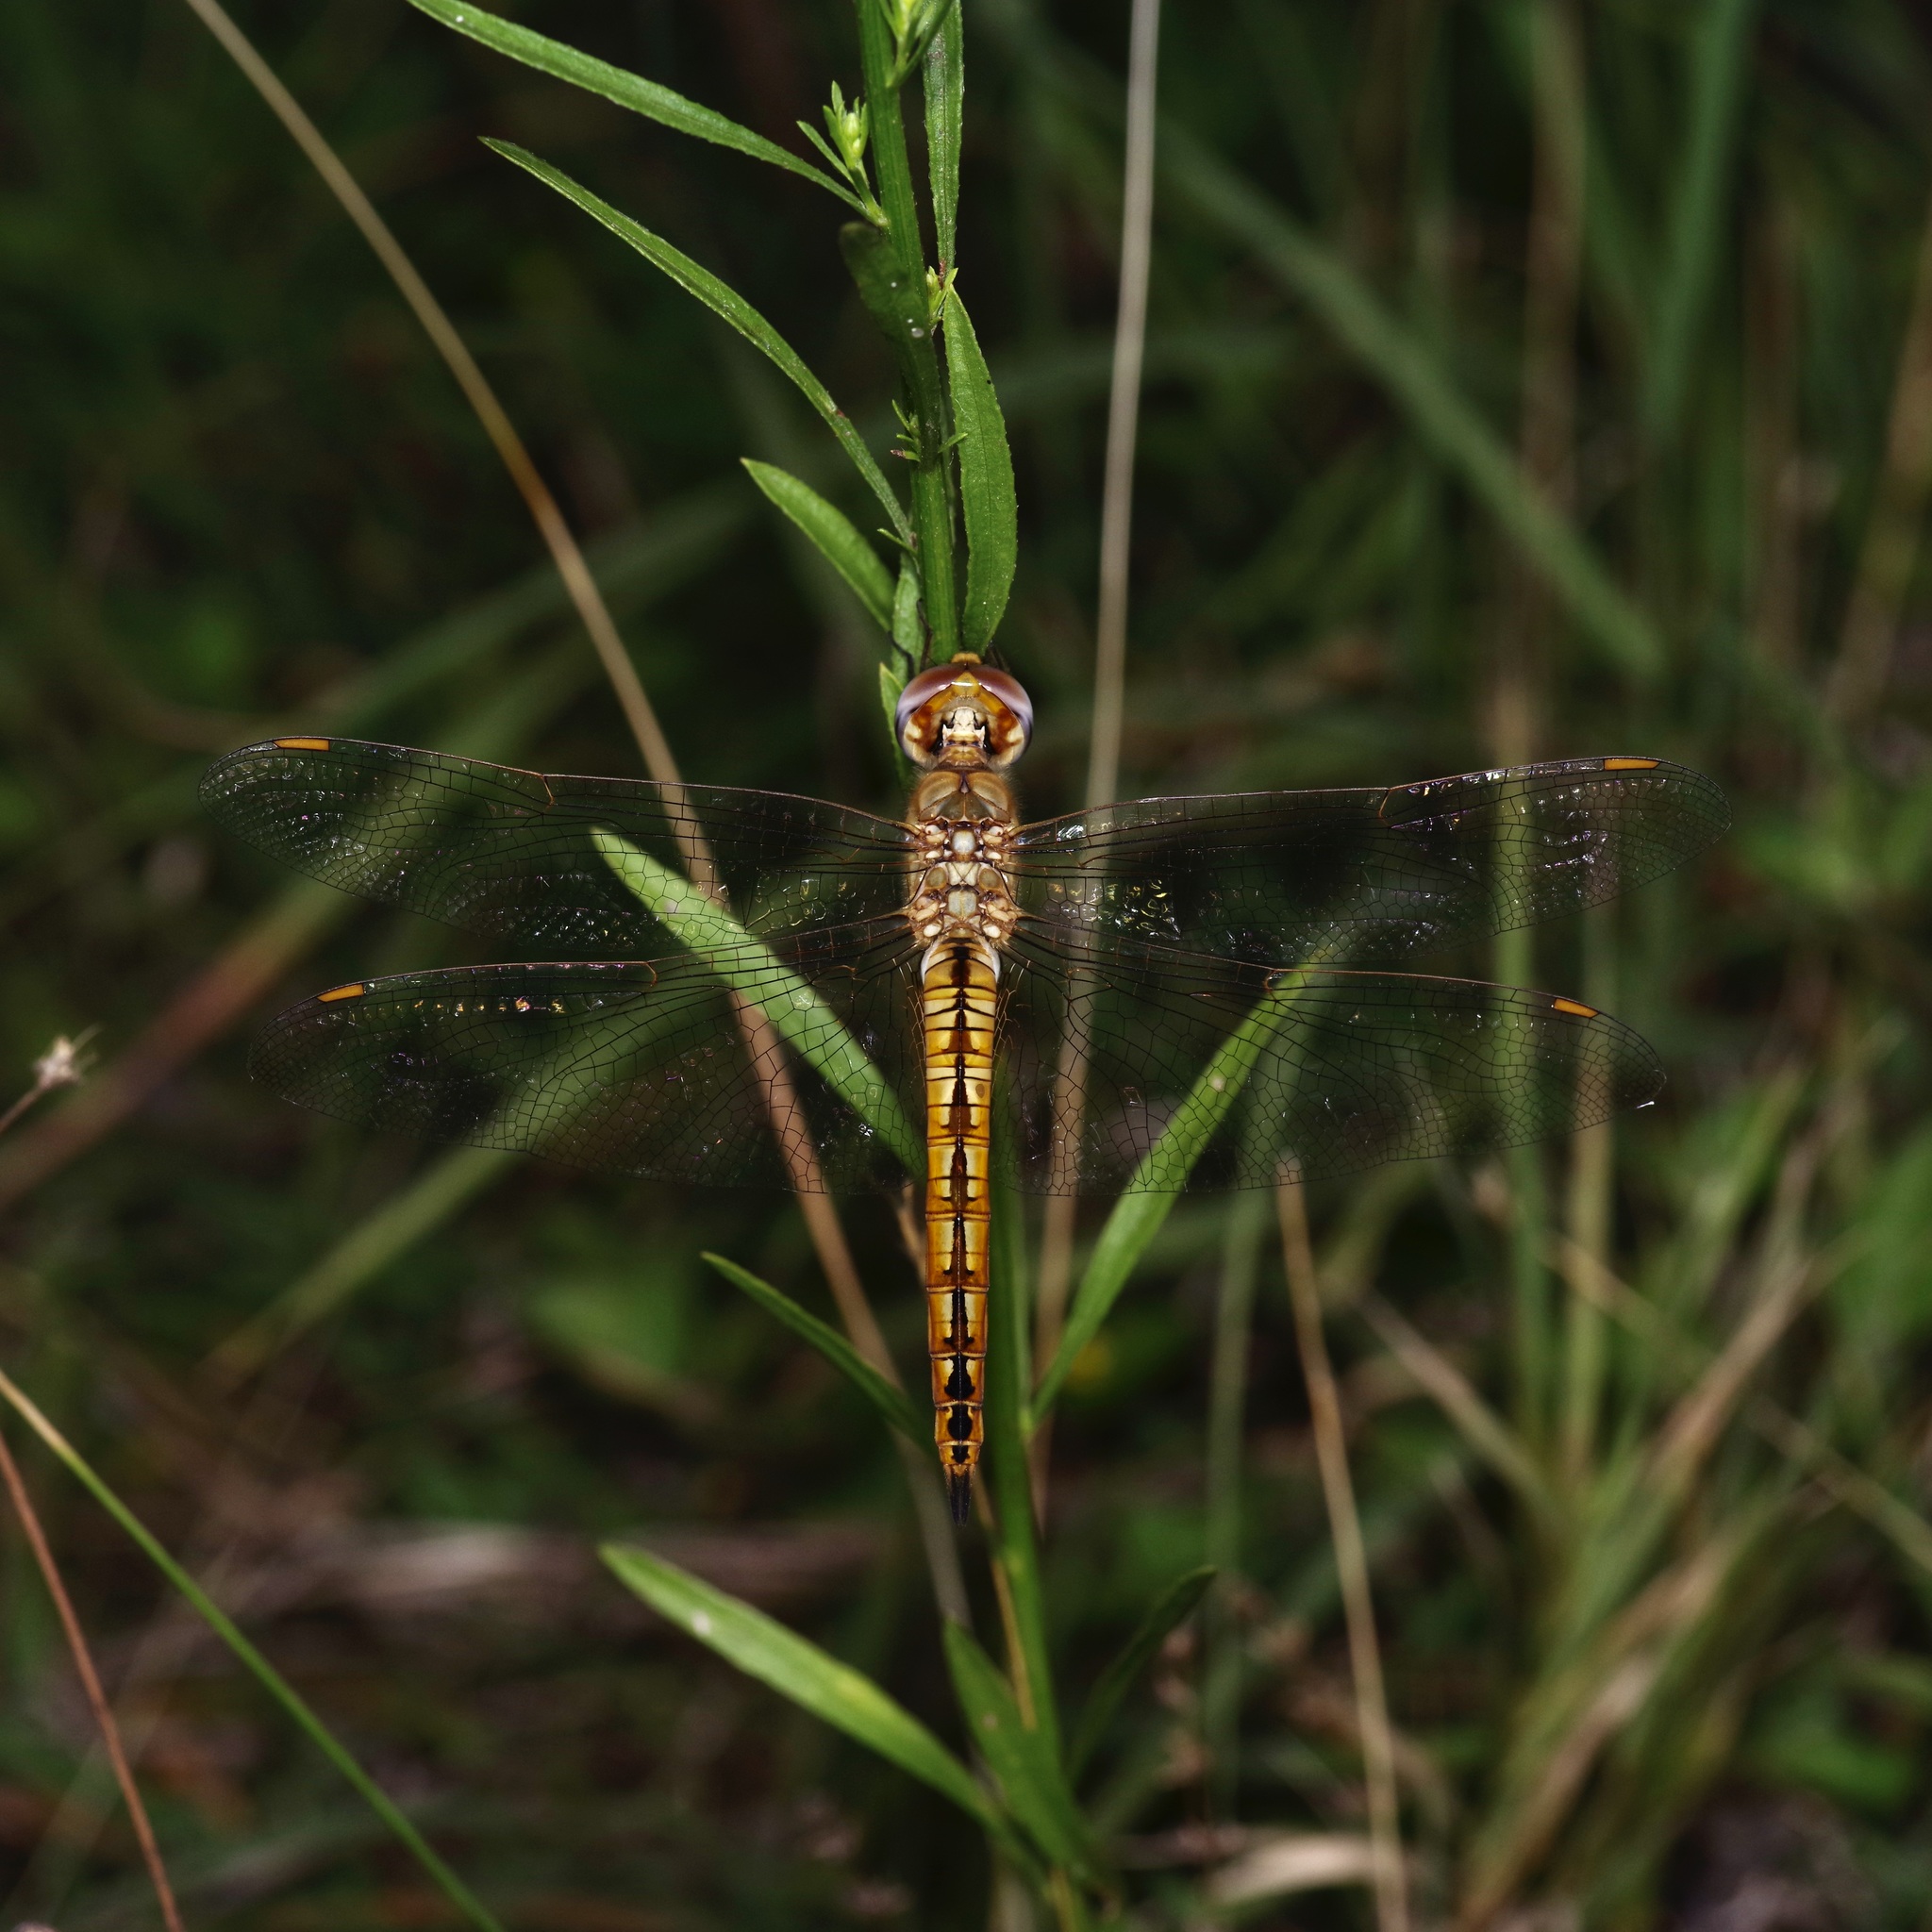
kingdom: Animalia
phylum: Arthropoda
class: Insecta
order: Odonata
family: Libellulidae
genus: Pantala
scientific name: Pantala flavescens
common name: Wandering glider
